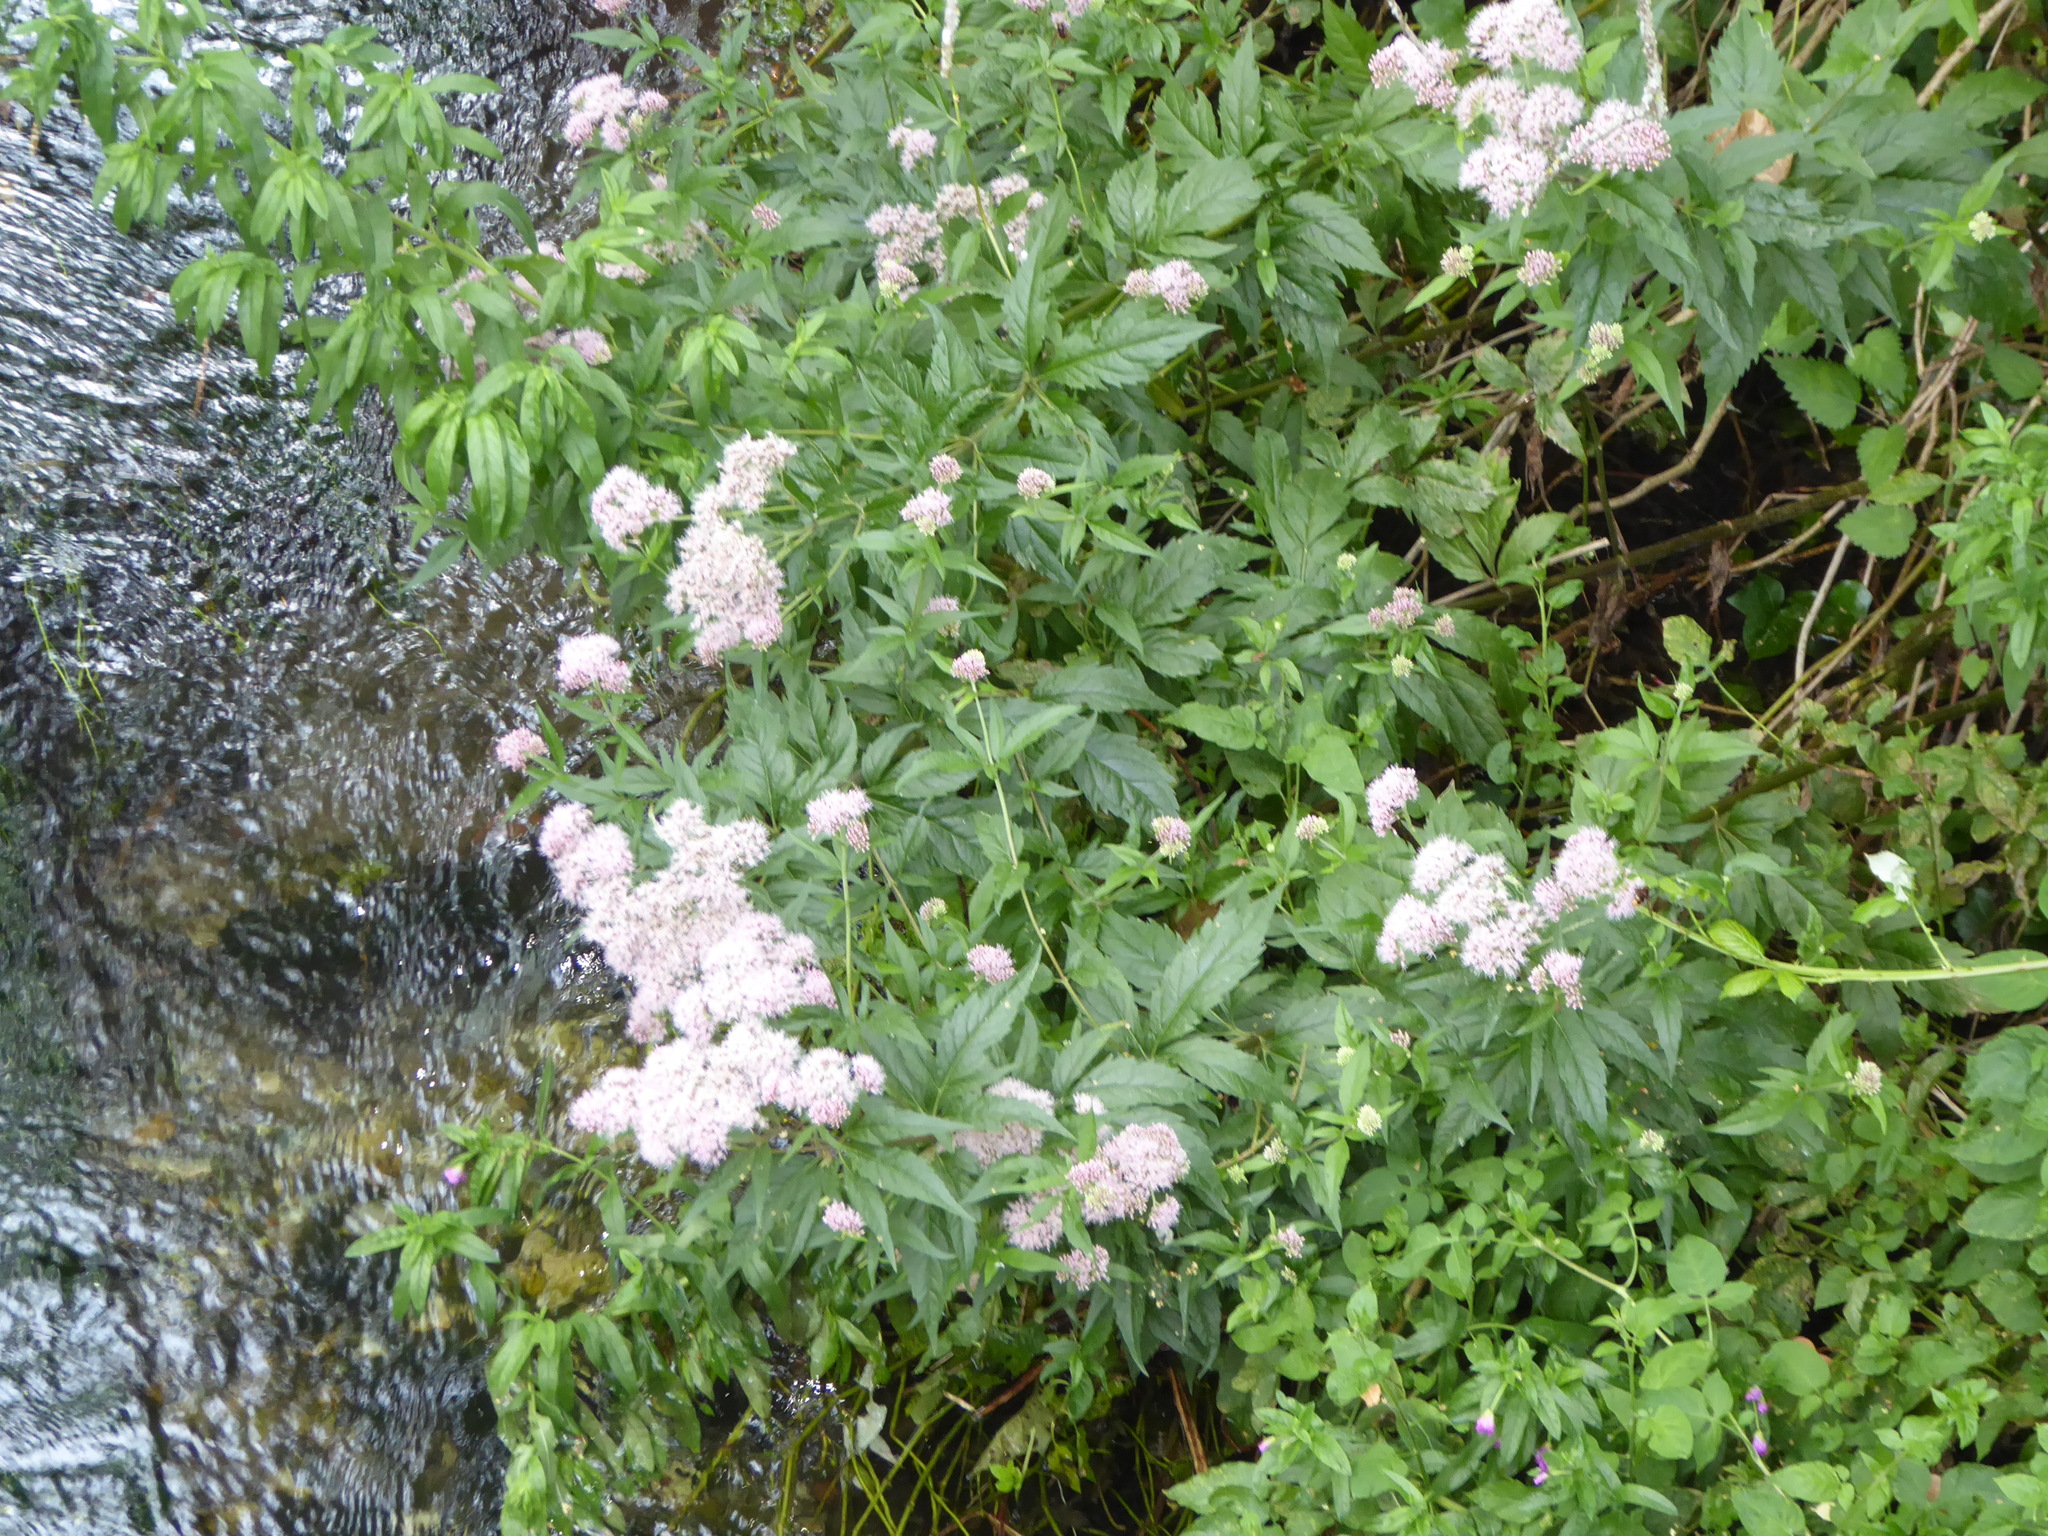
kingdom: Plantae
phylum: Tracheophyta
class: Magnoliopsida
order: Asterales
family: Asteraceae
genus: Eupatorium
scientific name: Eupatorium cannabinum
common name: Hemp-agrimony
